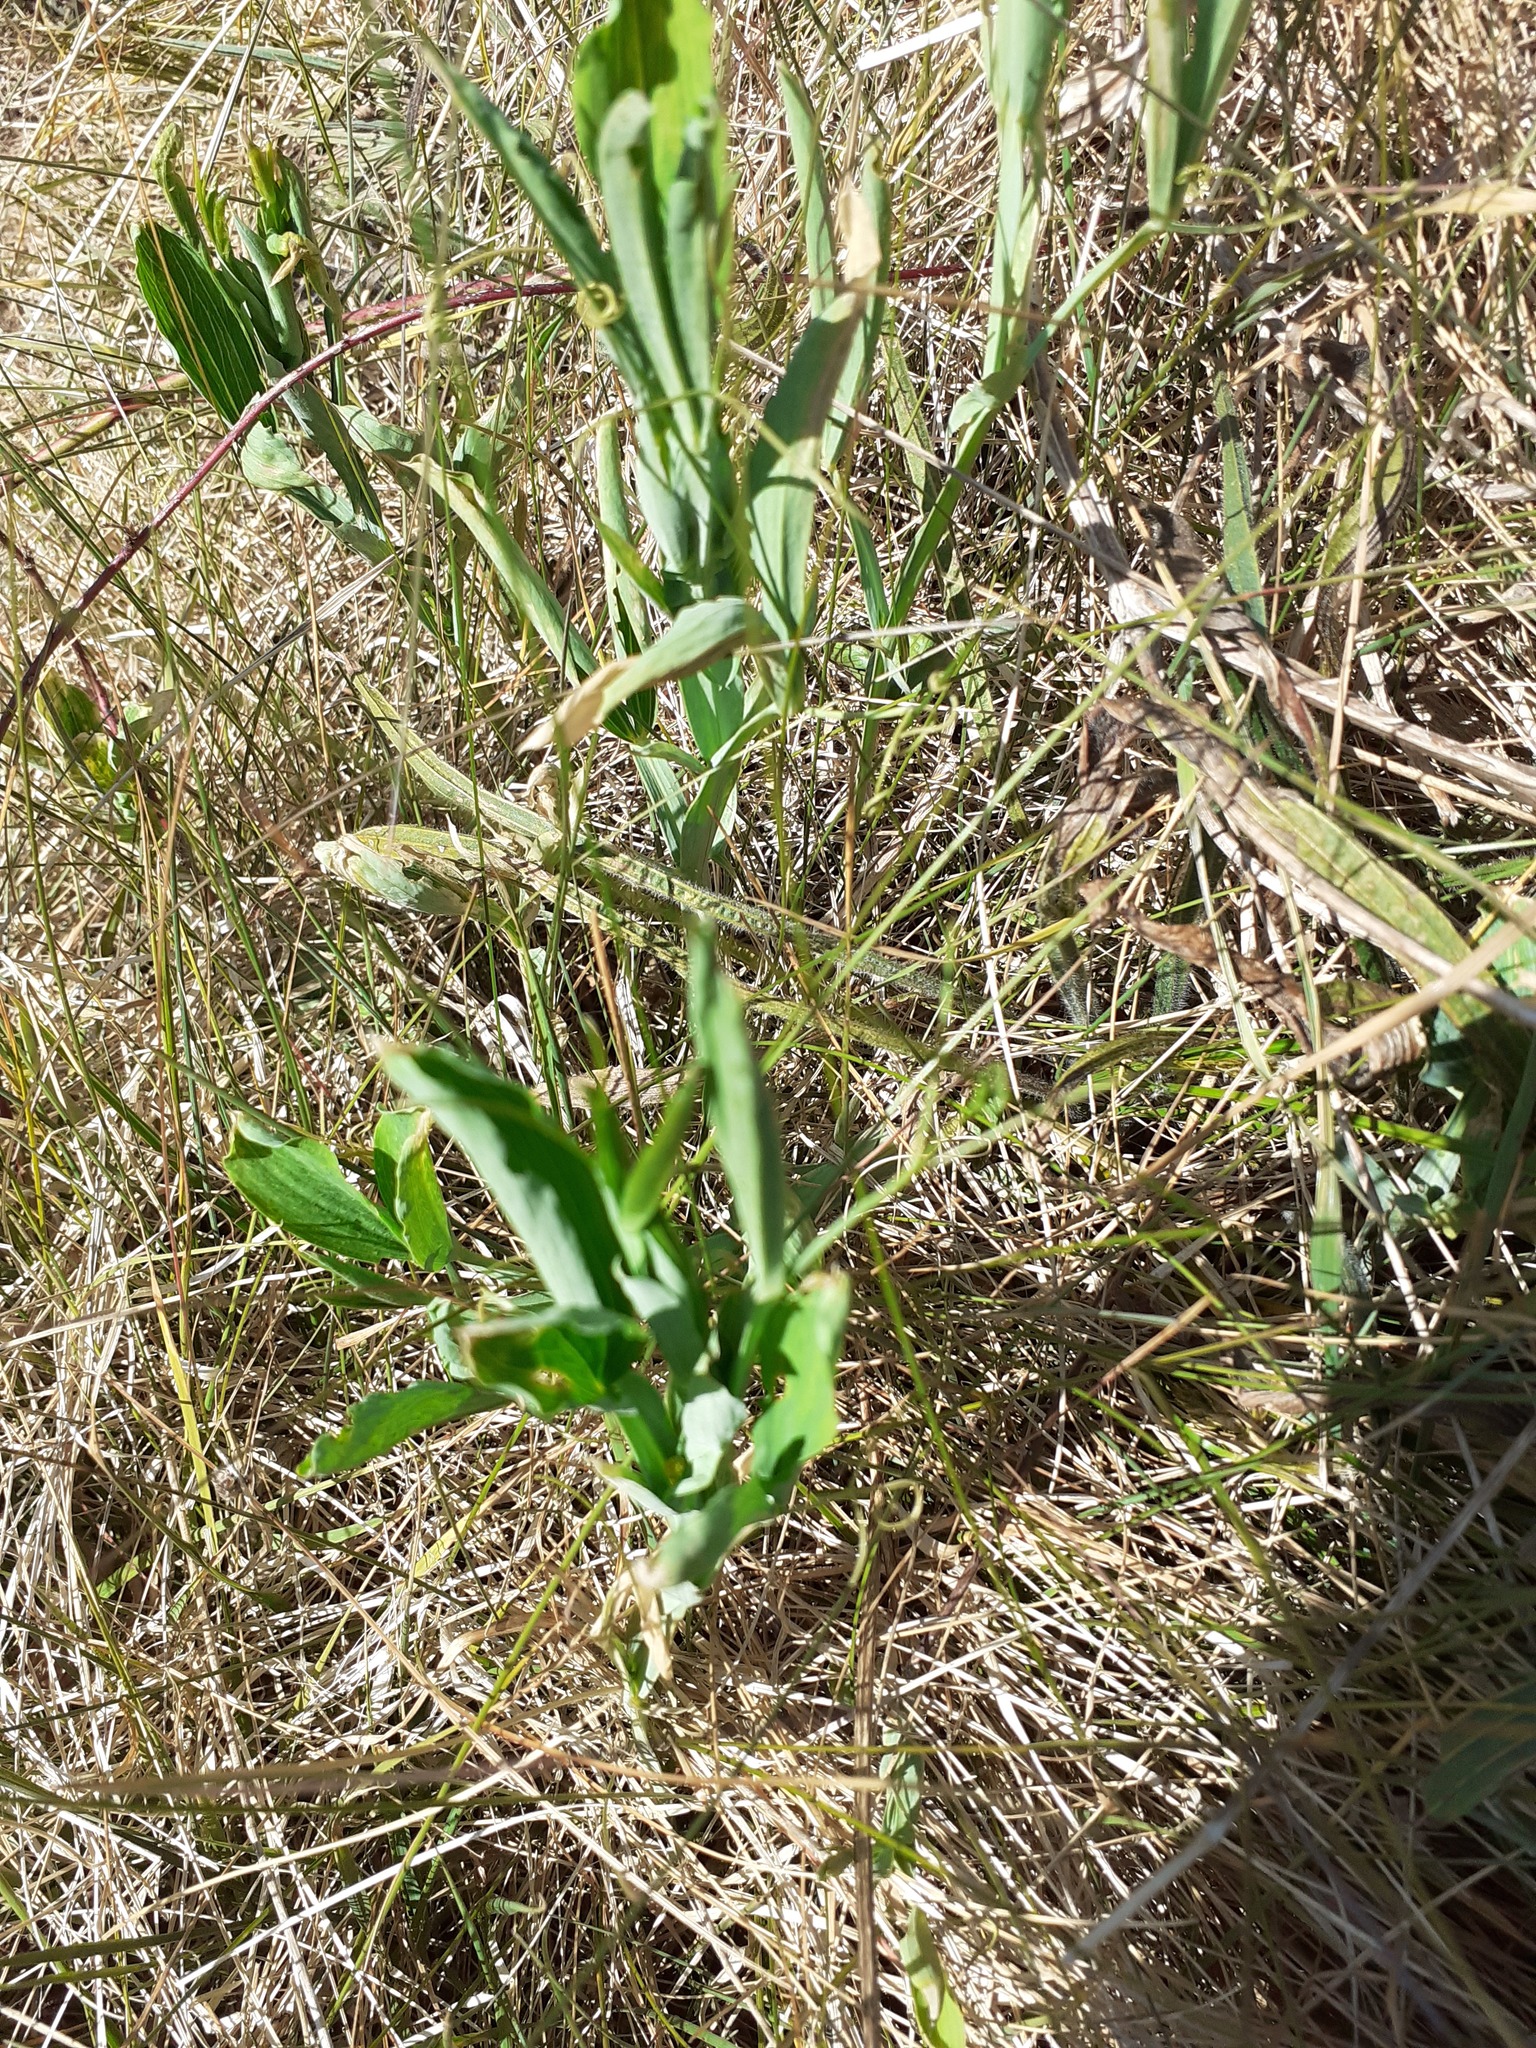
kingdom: Plantae
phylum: Tracheophyta
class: Magnoliopsida
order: Fabales
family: Fabaceae
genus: Lathyrus
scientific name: Lathyrus latifolius
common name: Perennial pea
